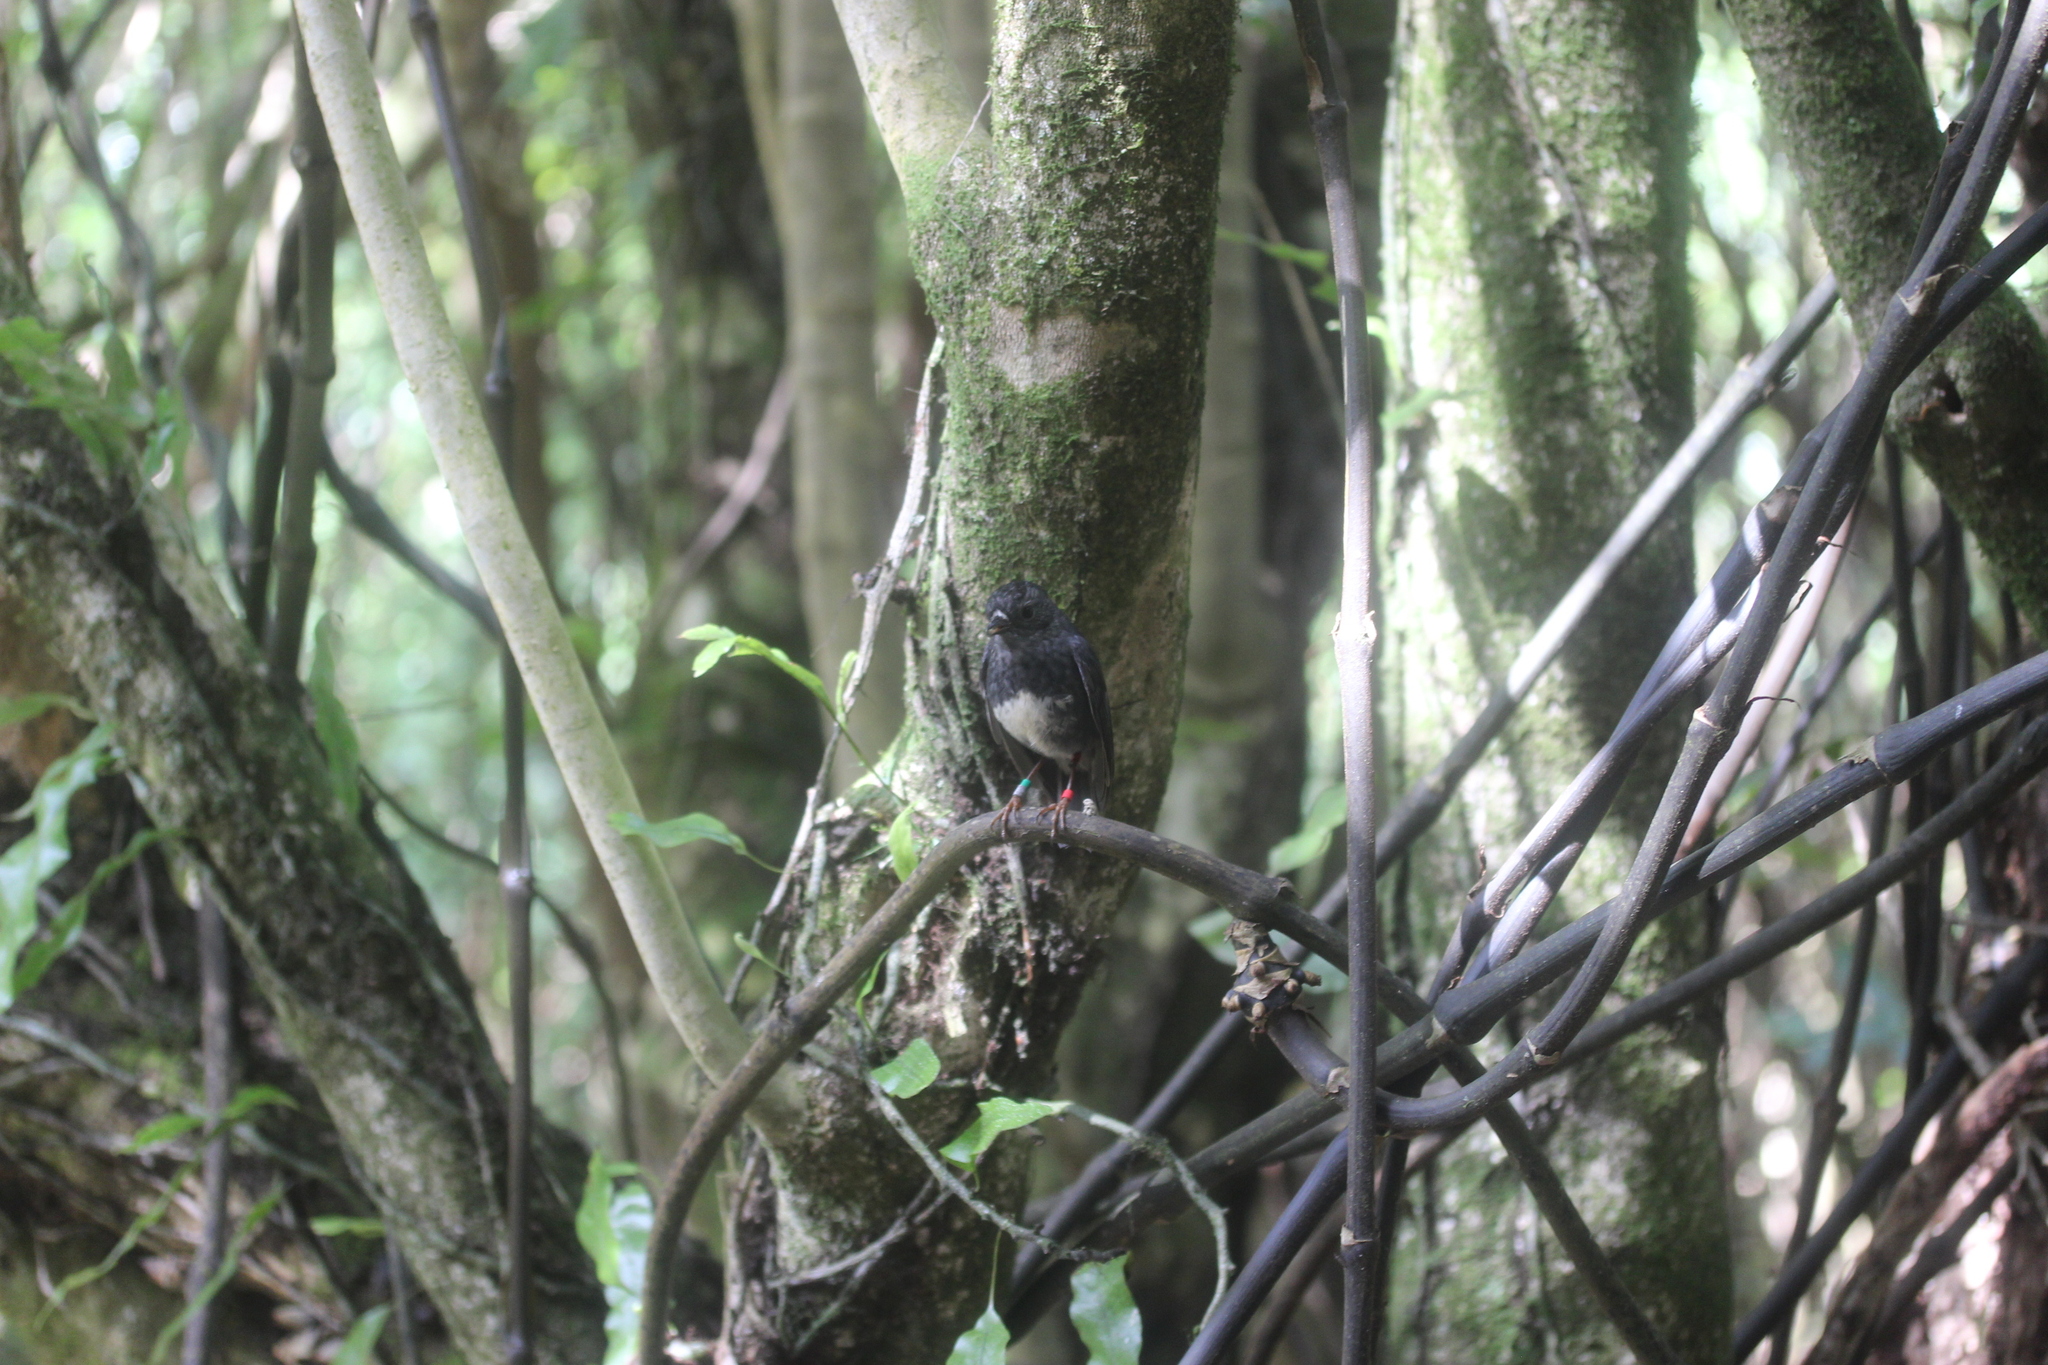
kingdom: Animalia
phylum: Chordata
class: Aves
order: Passeriformes
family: Petroicidae
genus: Petroica
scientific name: Petroica australis
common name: New zealand robin
